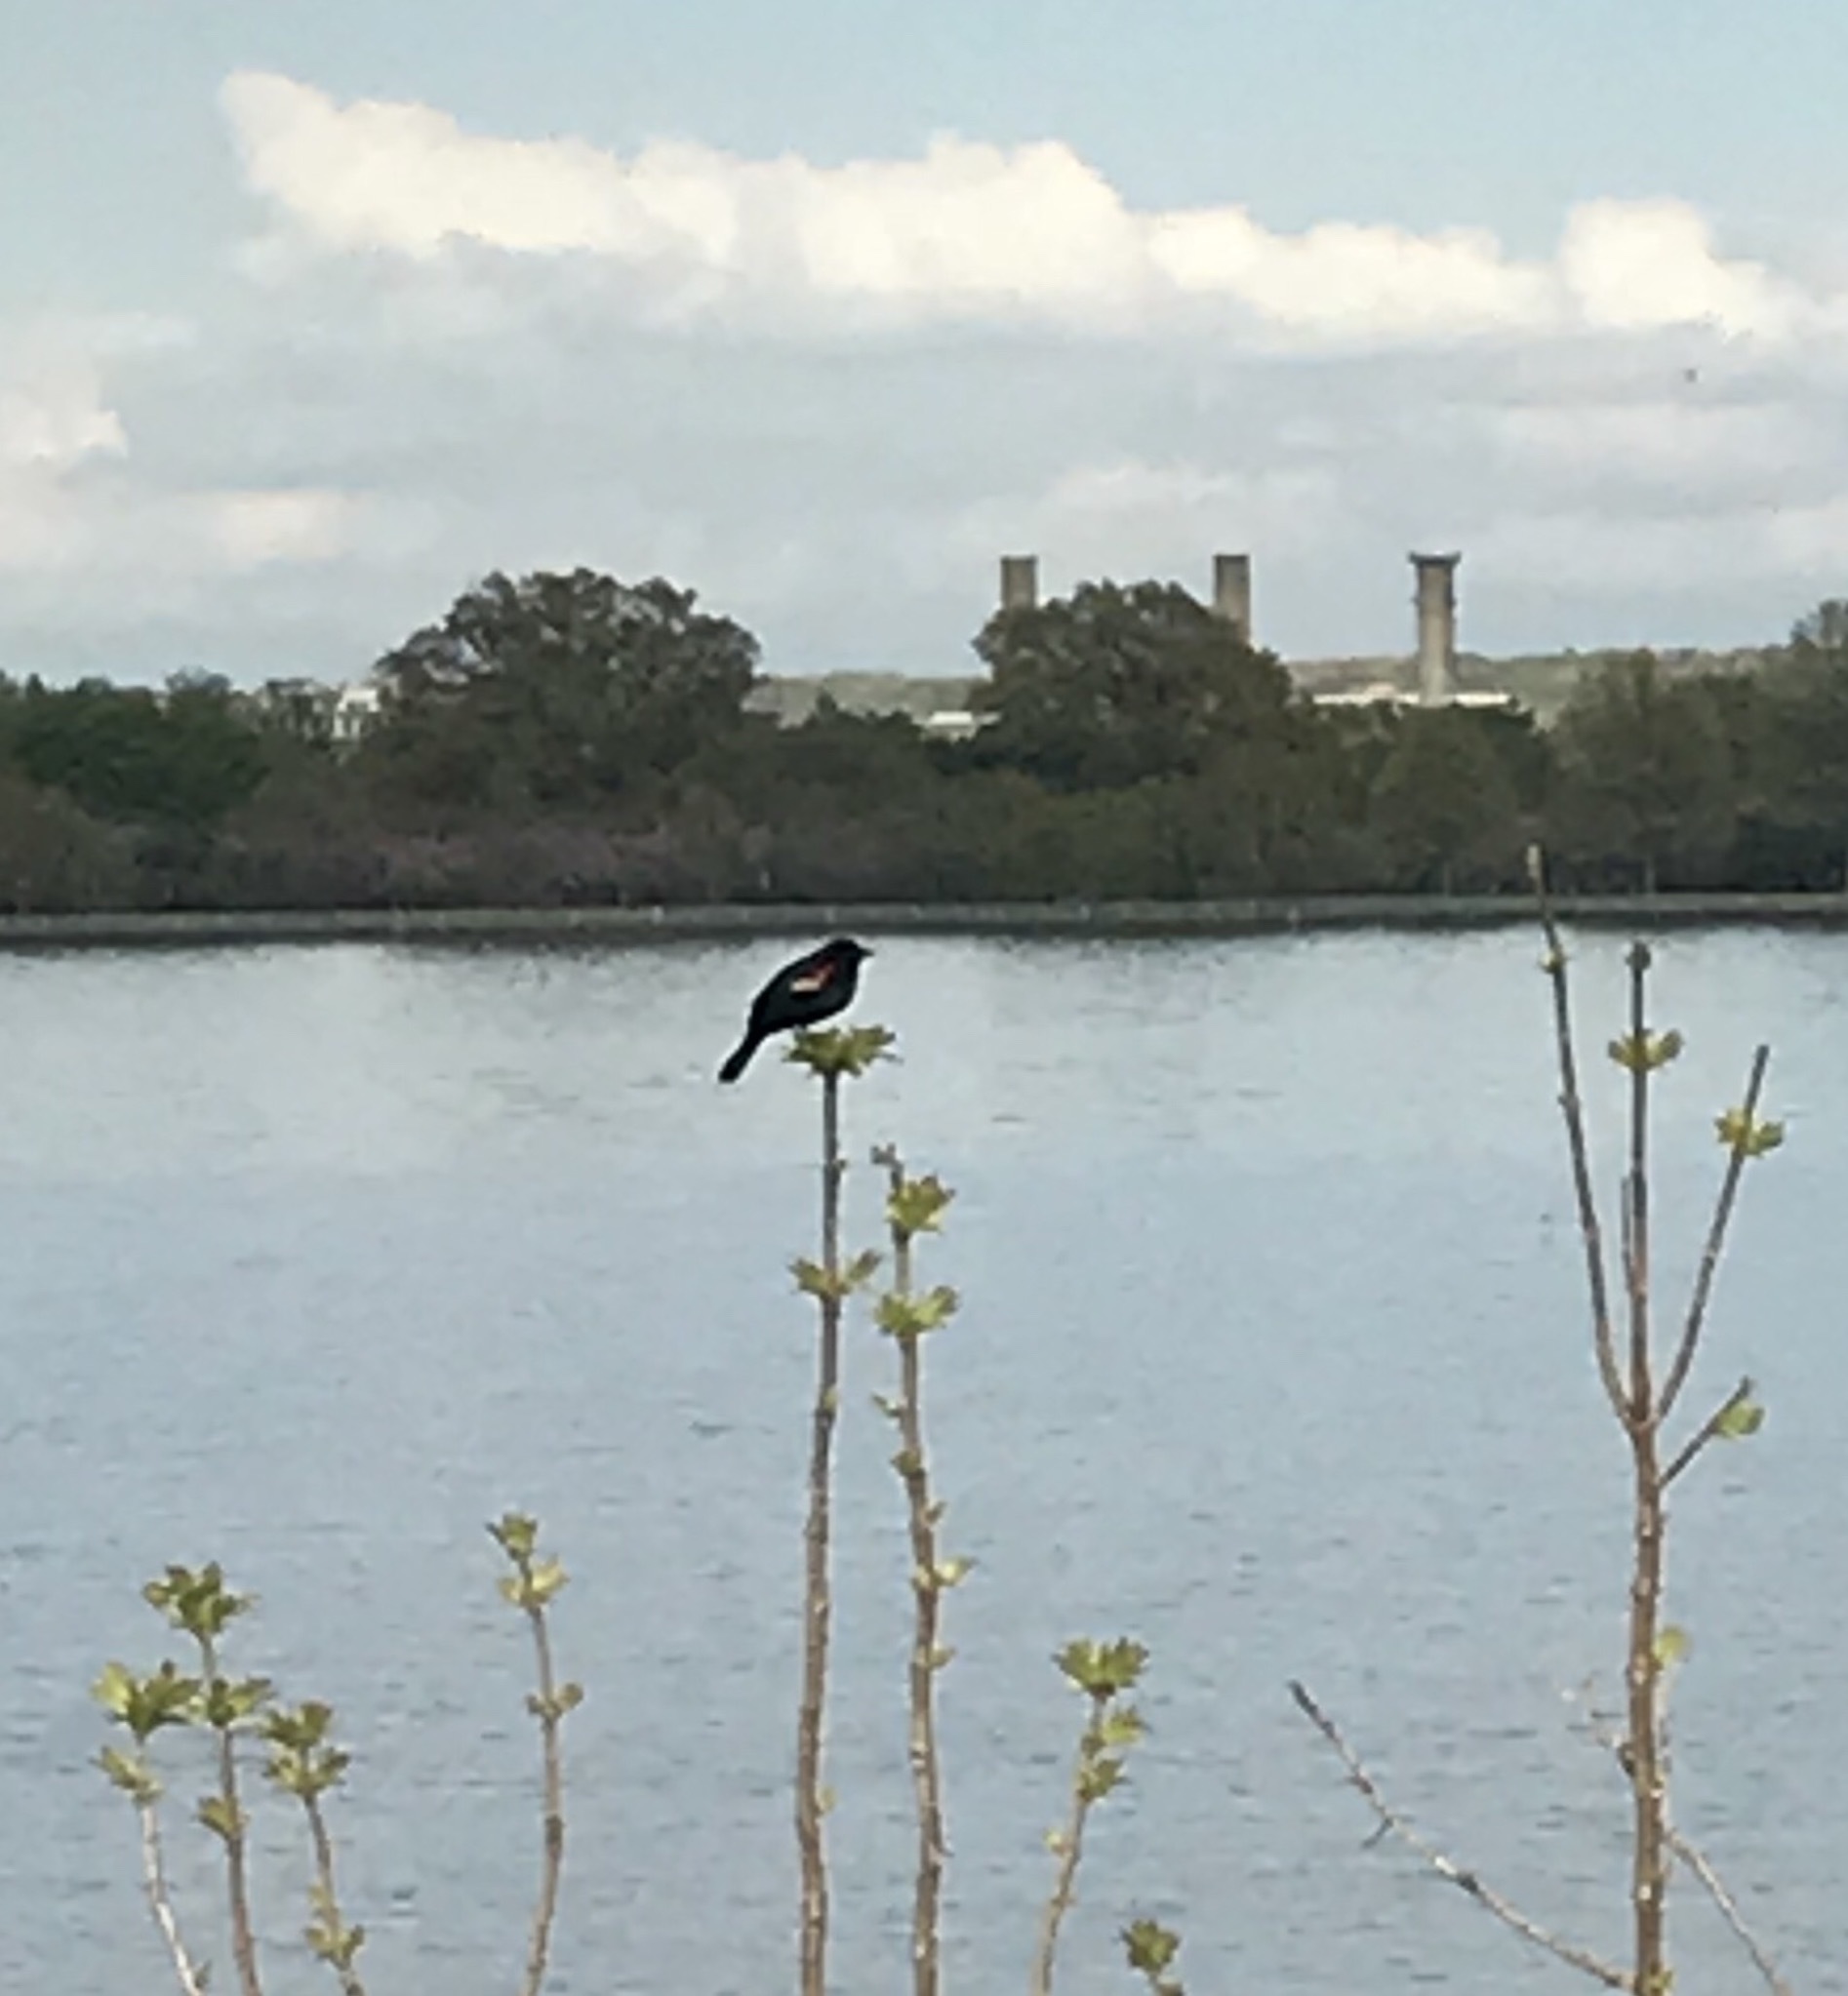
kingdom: Animalia
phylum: Chordata
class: Aves
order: Passeriformes
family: Icteridae
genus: Agelaius
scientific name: Agelaius phoeniceus
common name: Red-winged blackbird
